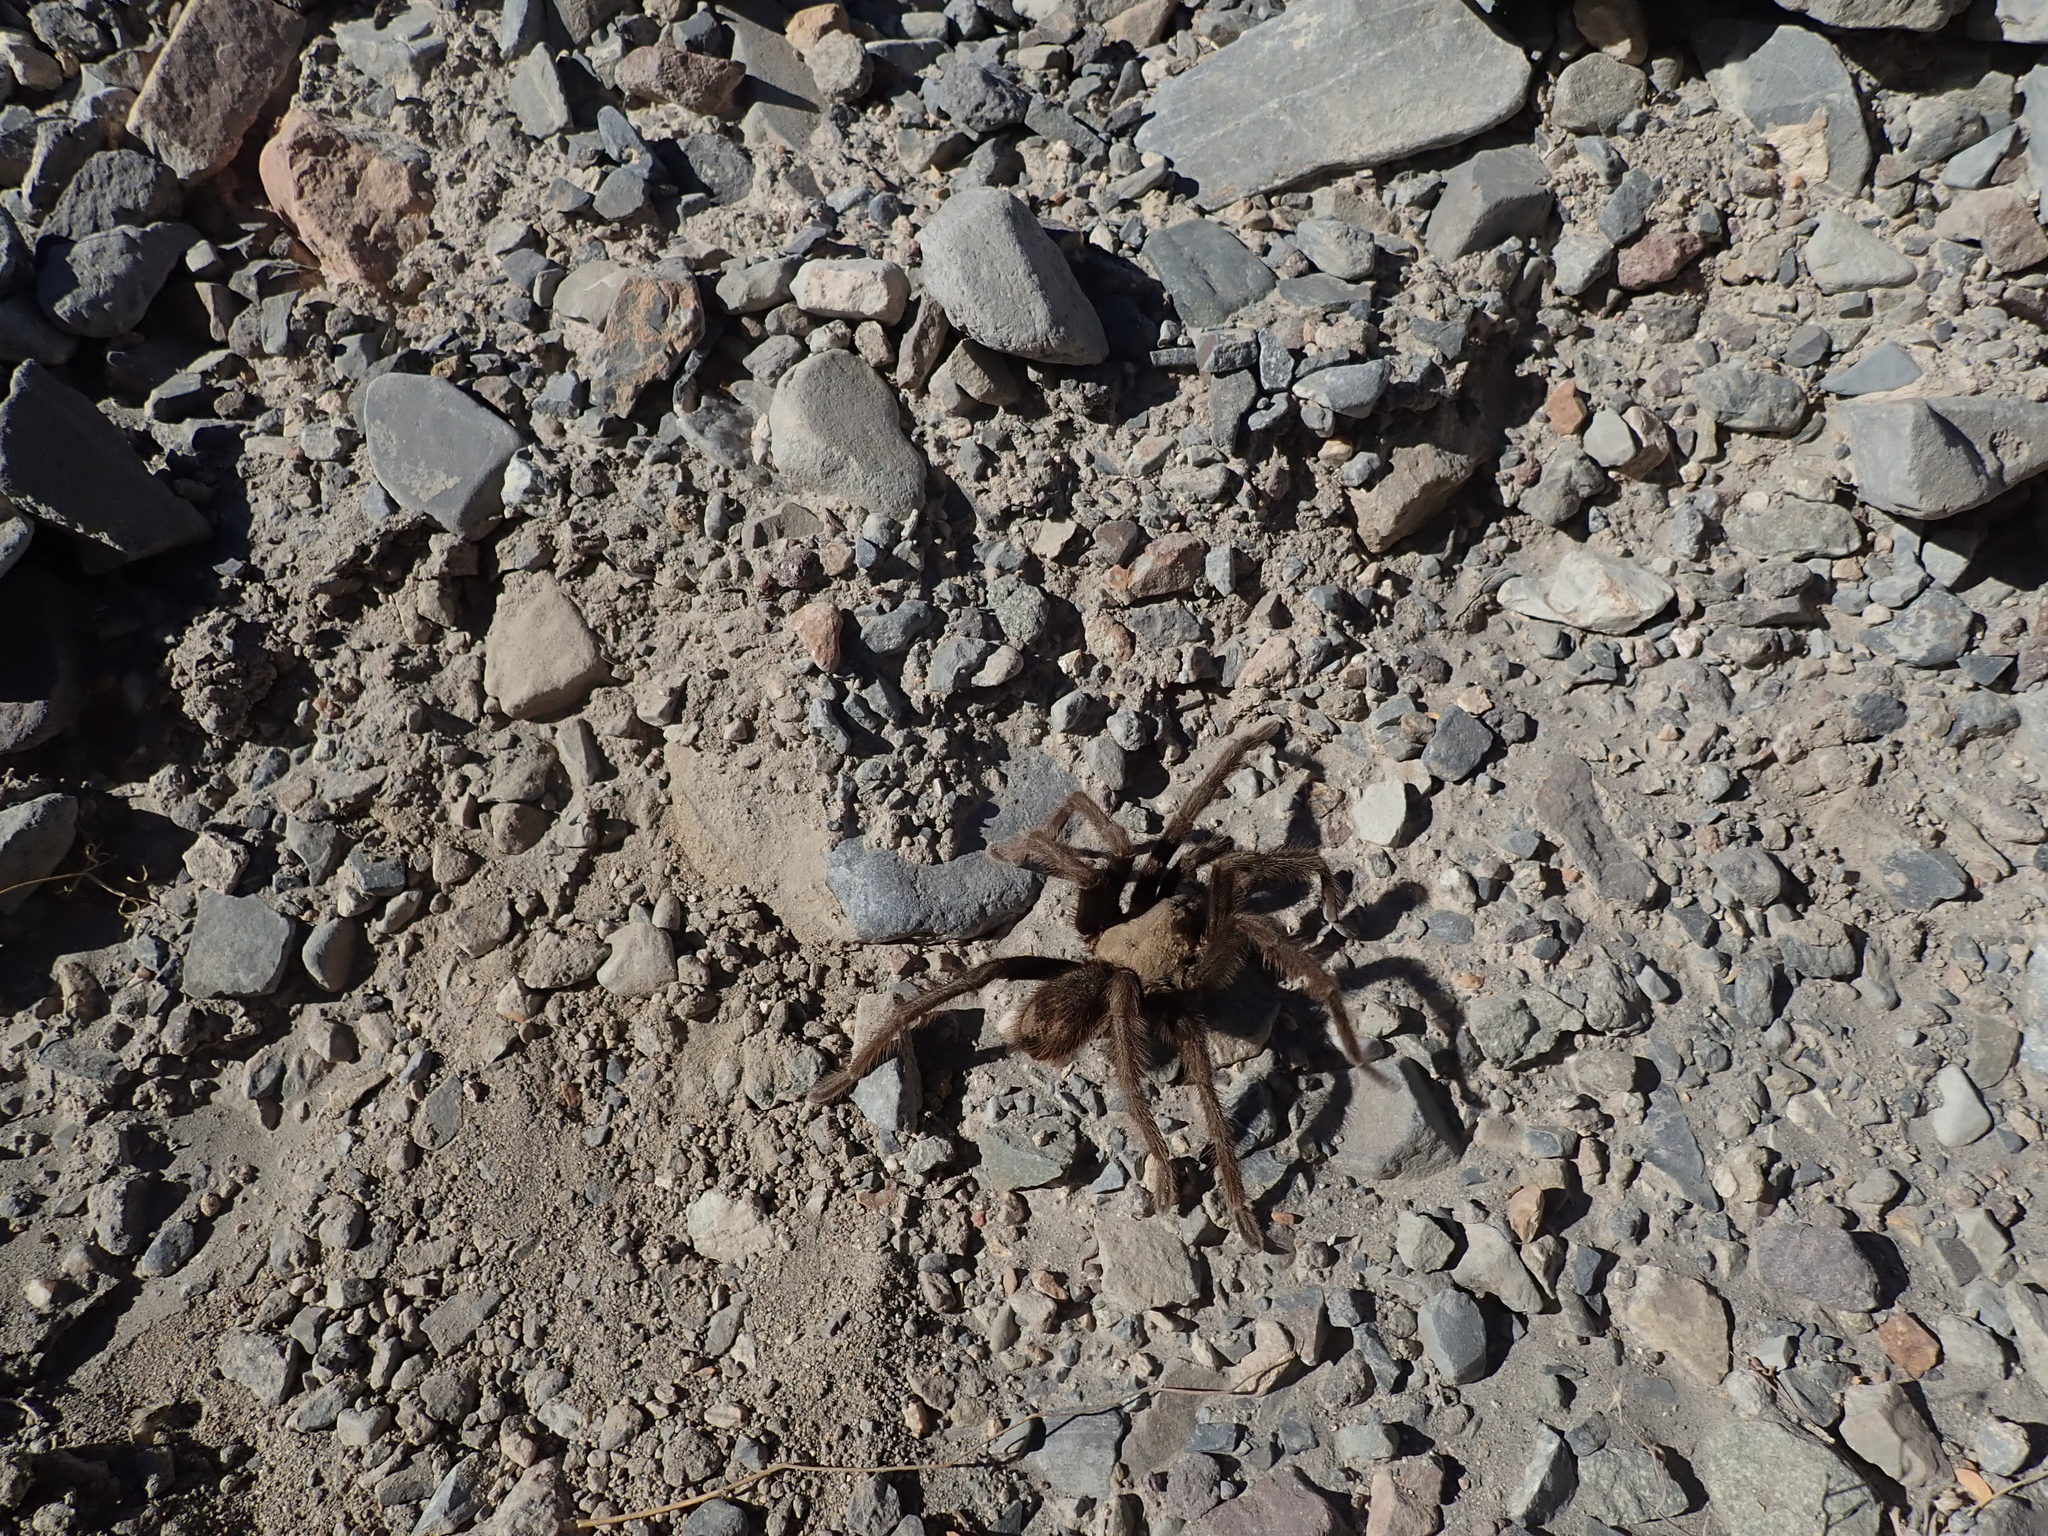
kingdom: Animalia
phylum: Arthropoda
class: Arachnida
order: Araneae
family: Theraphosidae
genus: Aphonopelma
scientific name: Aphonopelma iodius
